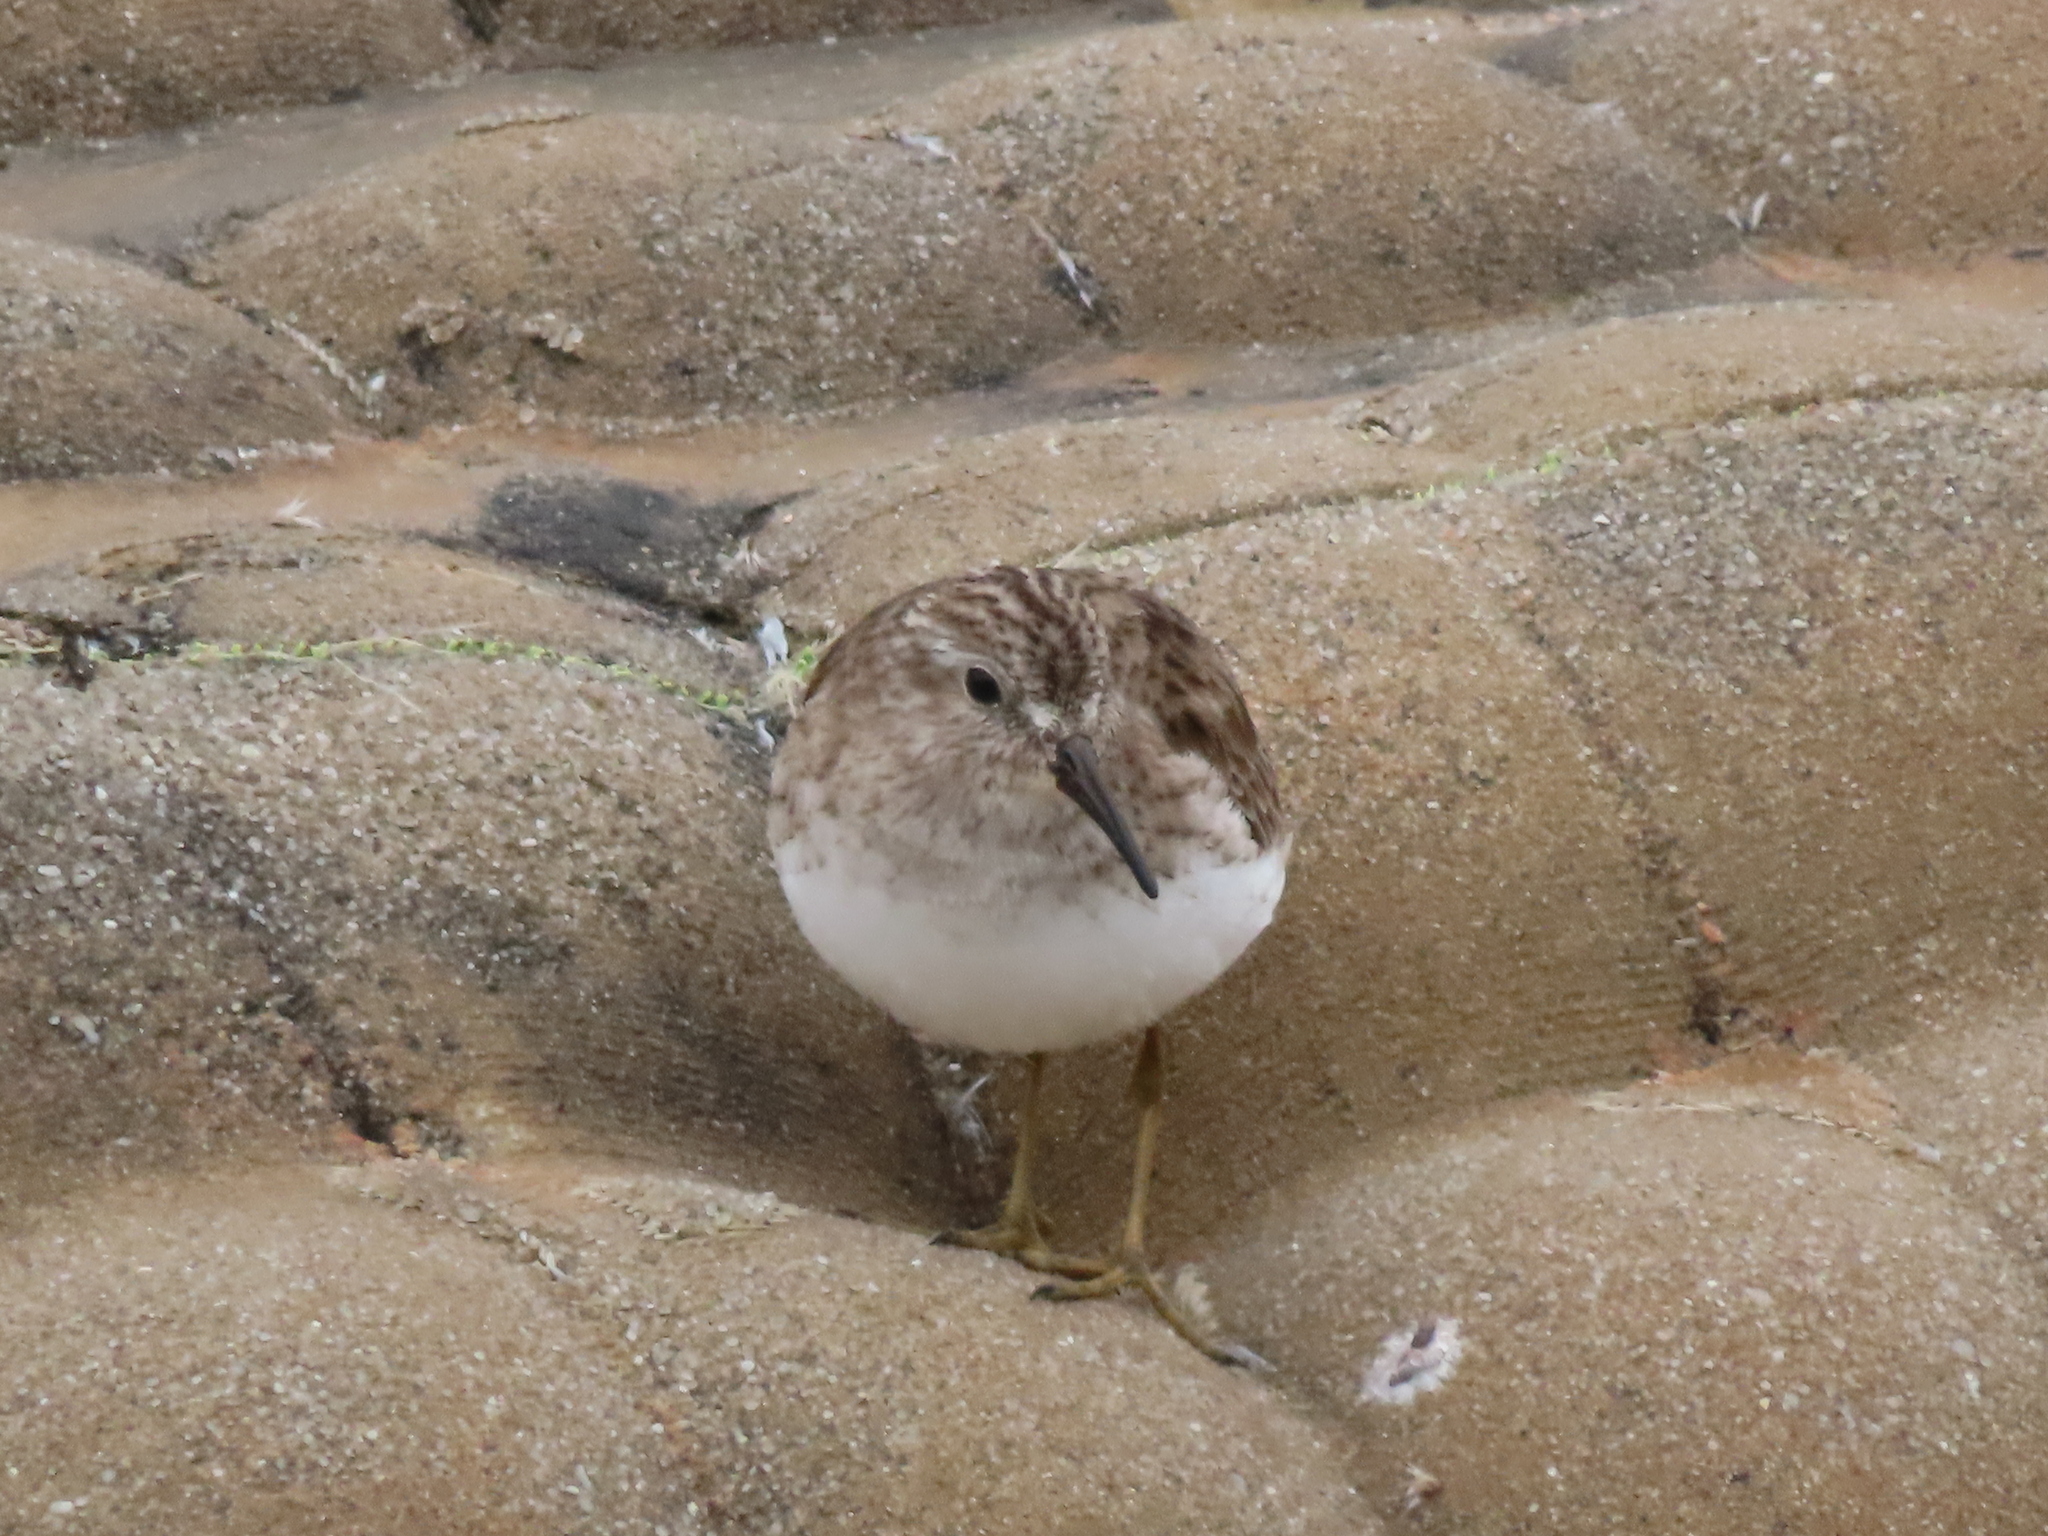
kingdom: Animalia
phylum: Chordata
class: Aves
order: Charadriiformes
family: Scolopacidae
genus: Calidris
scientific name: Calidris minutilla
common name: Least sandpiper
